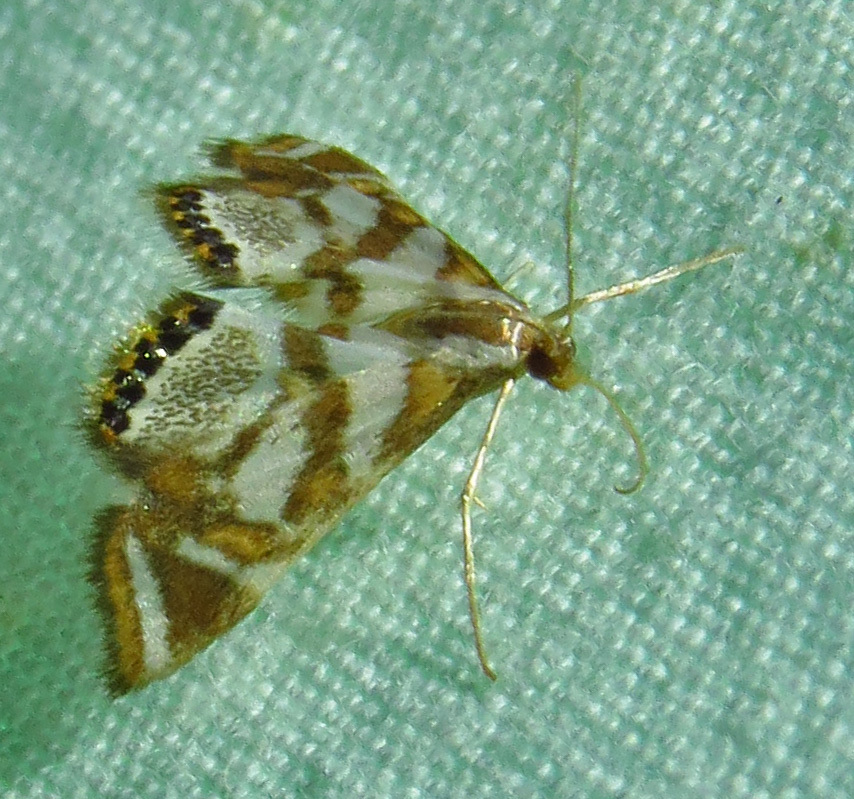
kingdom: Animalia
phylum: Arthropoda
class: Insecta
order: Lepidoptera
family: Crambidae
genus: Chrysendeton
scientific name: Chrysendeton medicinalis
